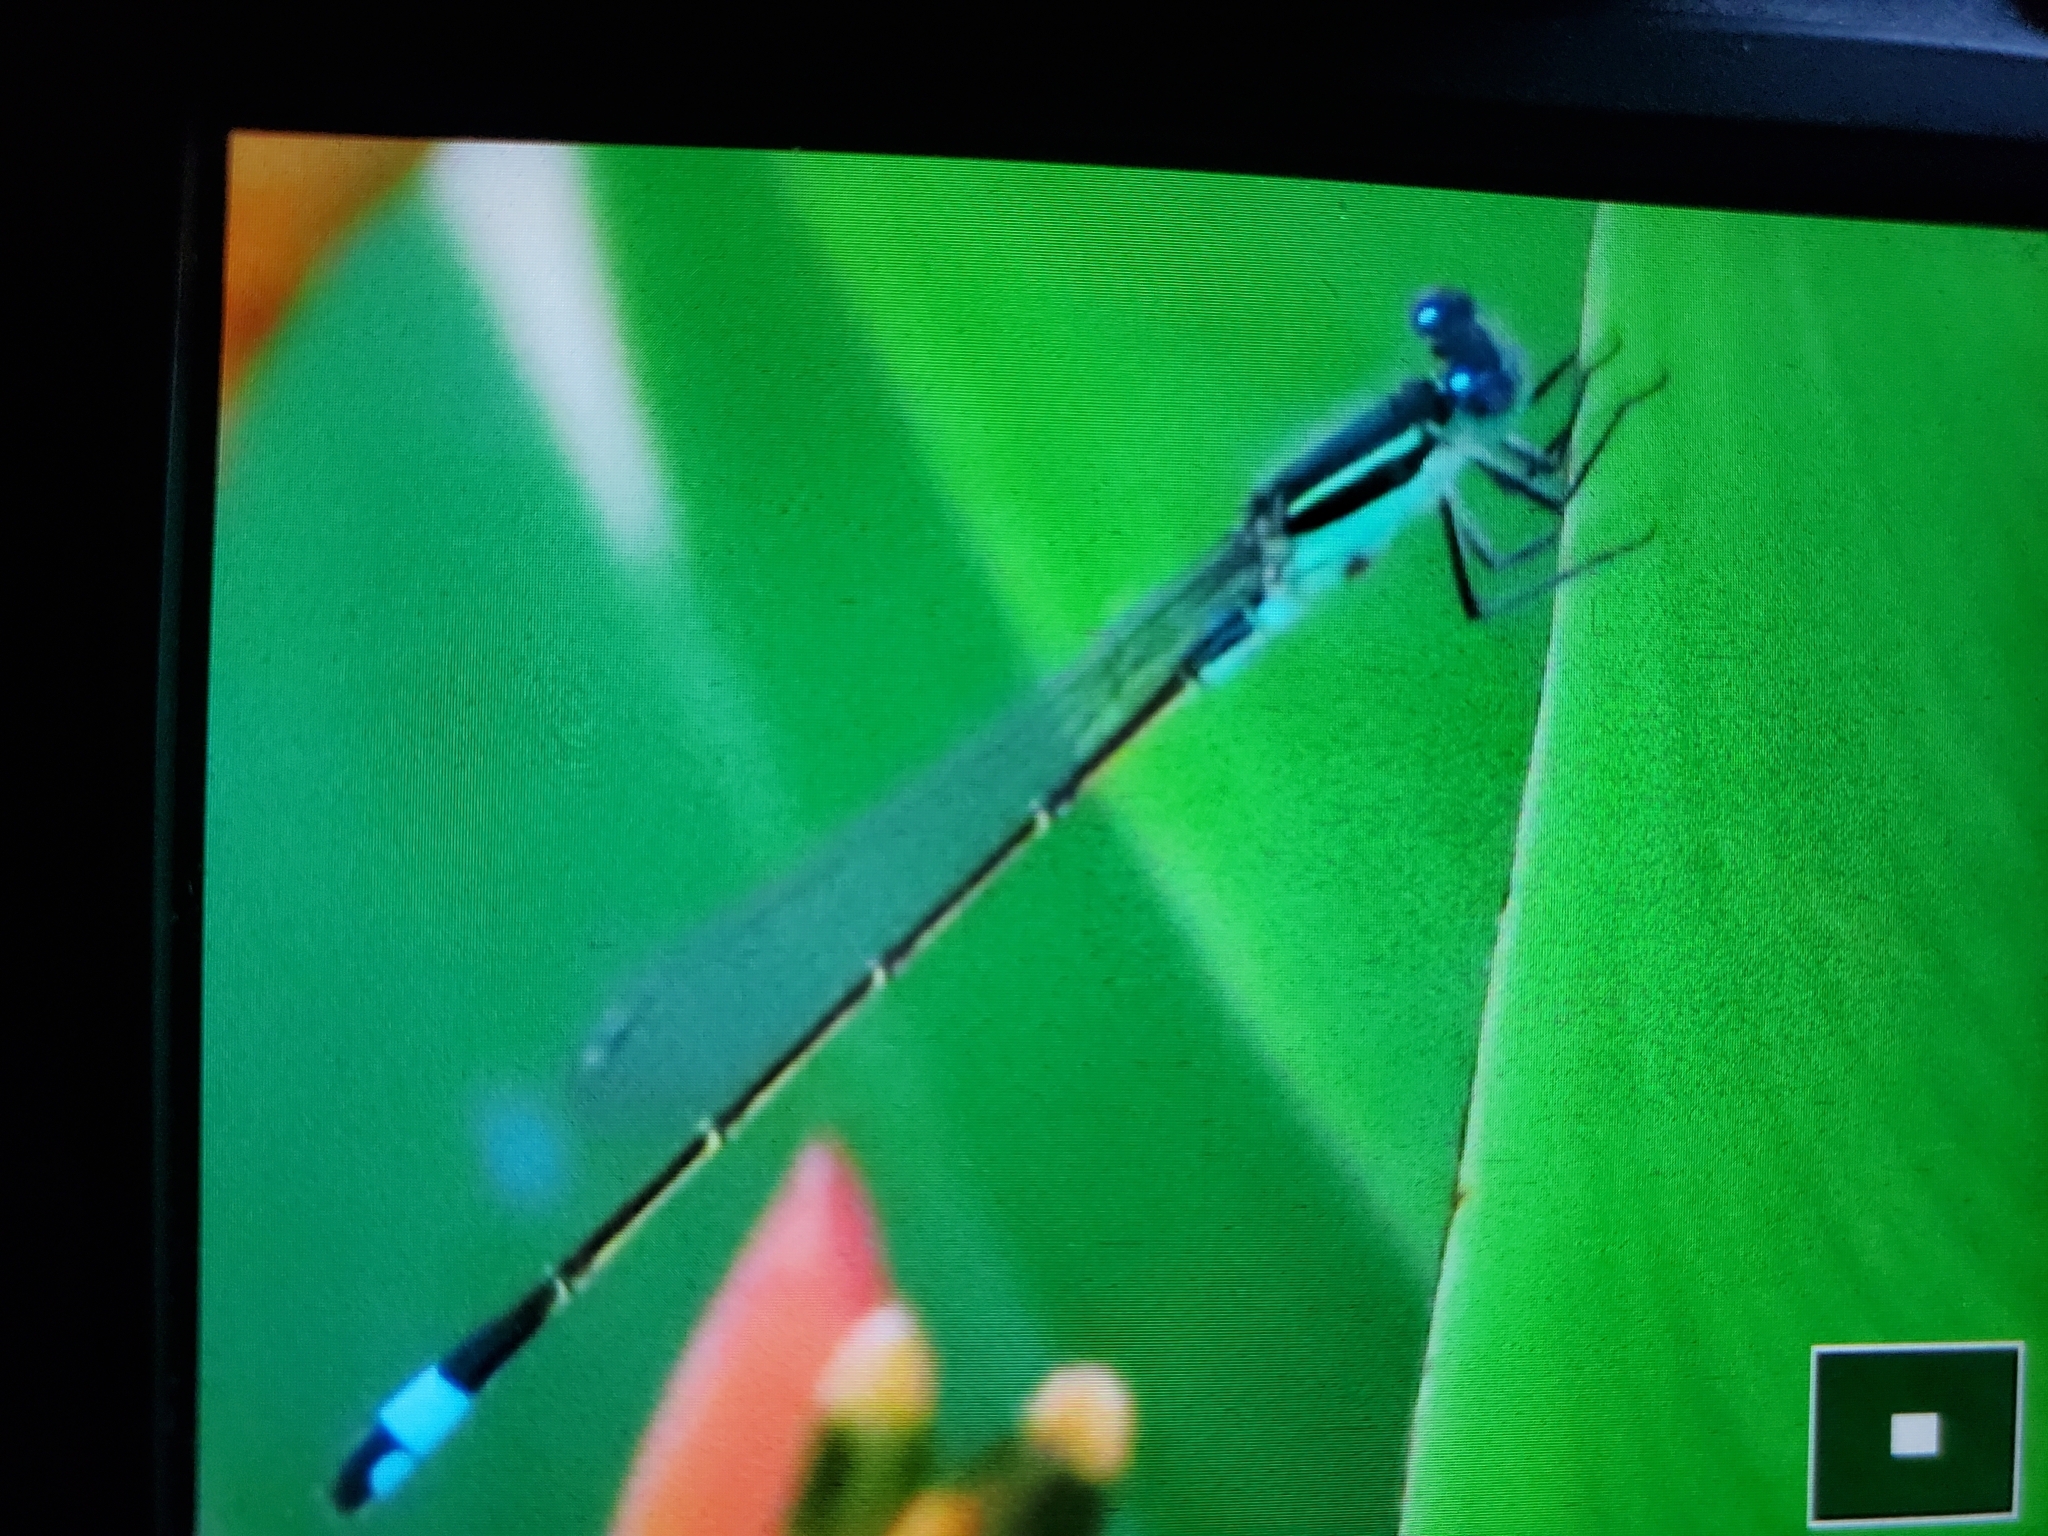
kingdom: Animalia
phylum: Arthropoda
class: Insecta
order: Odonata
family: Coenagrionidae
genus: Ischnura
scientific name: Ischnura ramburii
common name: Rambur's forktail
